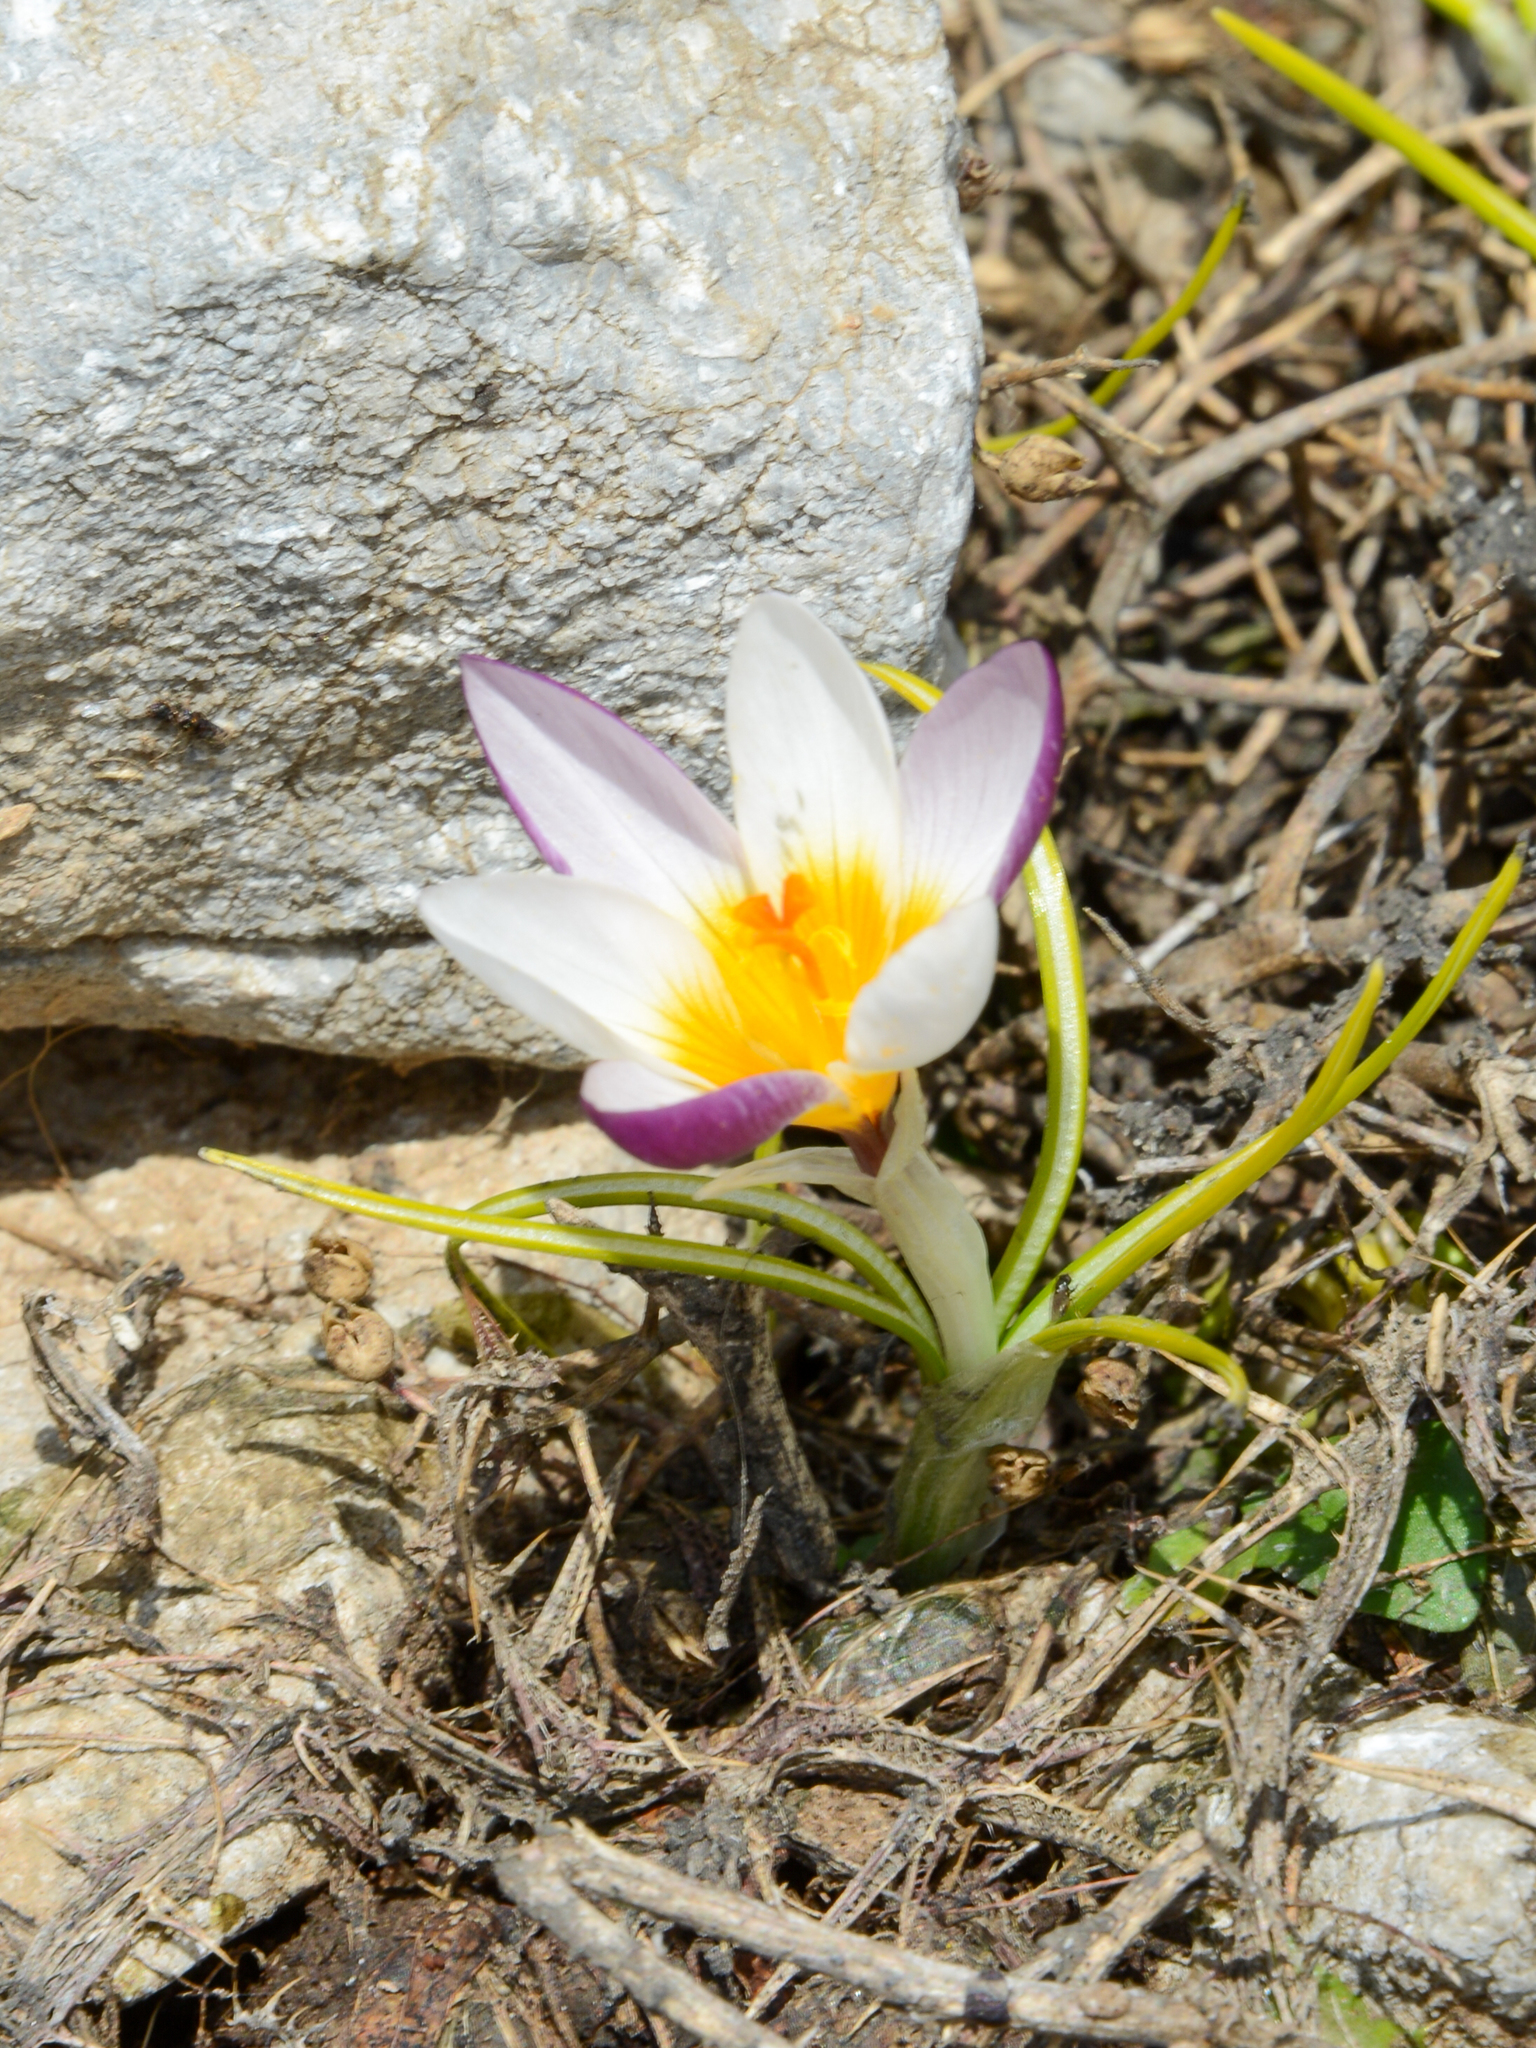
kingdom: Plantae
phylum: Tracheophyta
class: Liliopsida
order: Asparagales
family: Iridaceae
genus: Crocus
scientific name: Crocus sieberi
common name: Sieber's crocus
